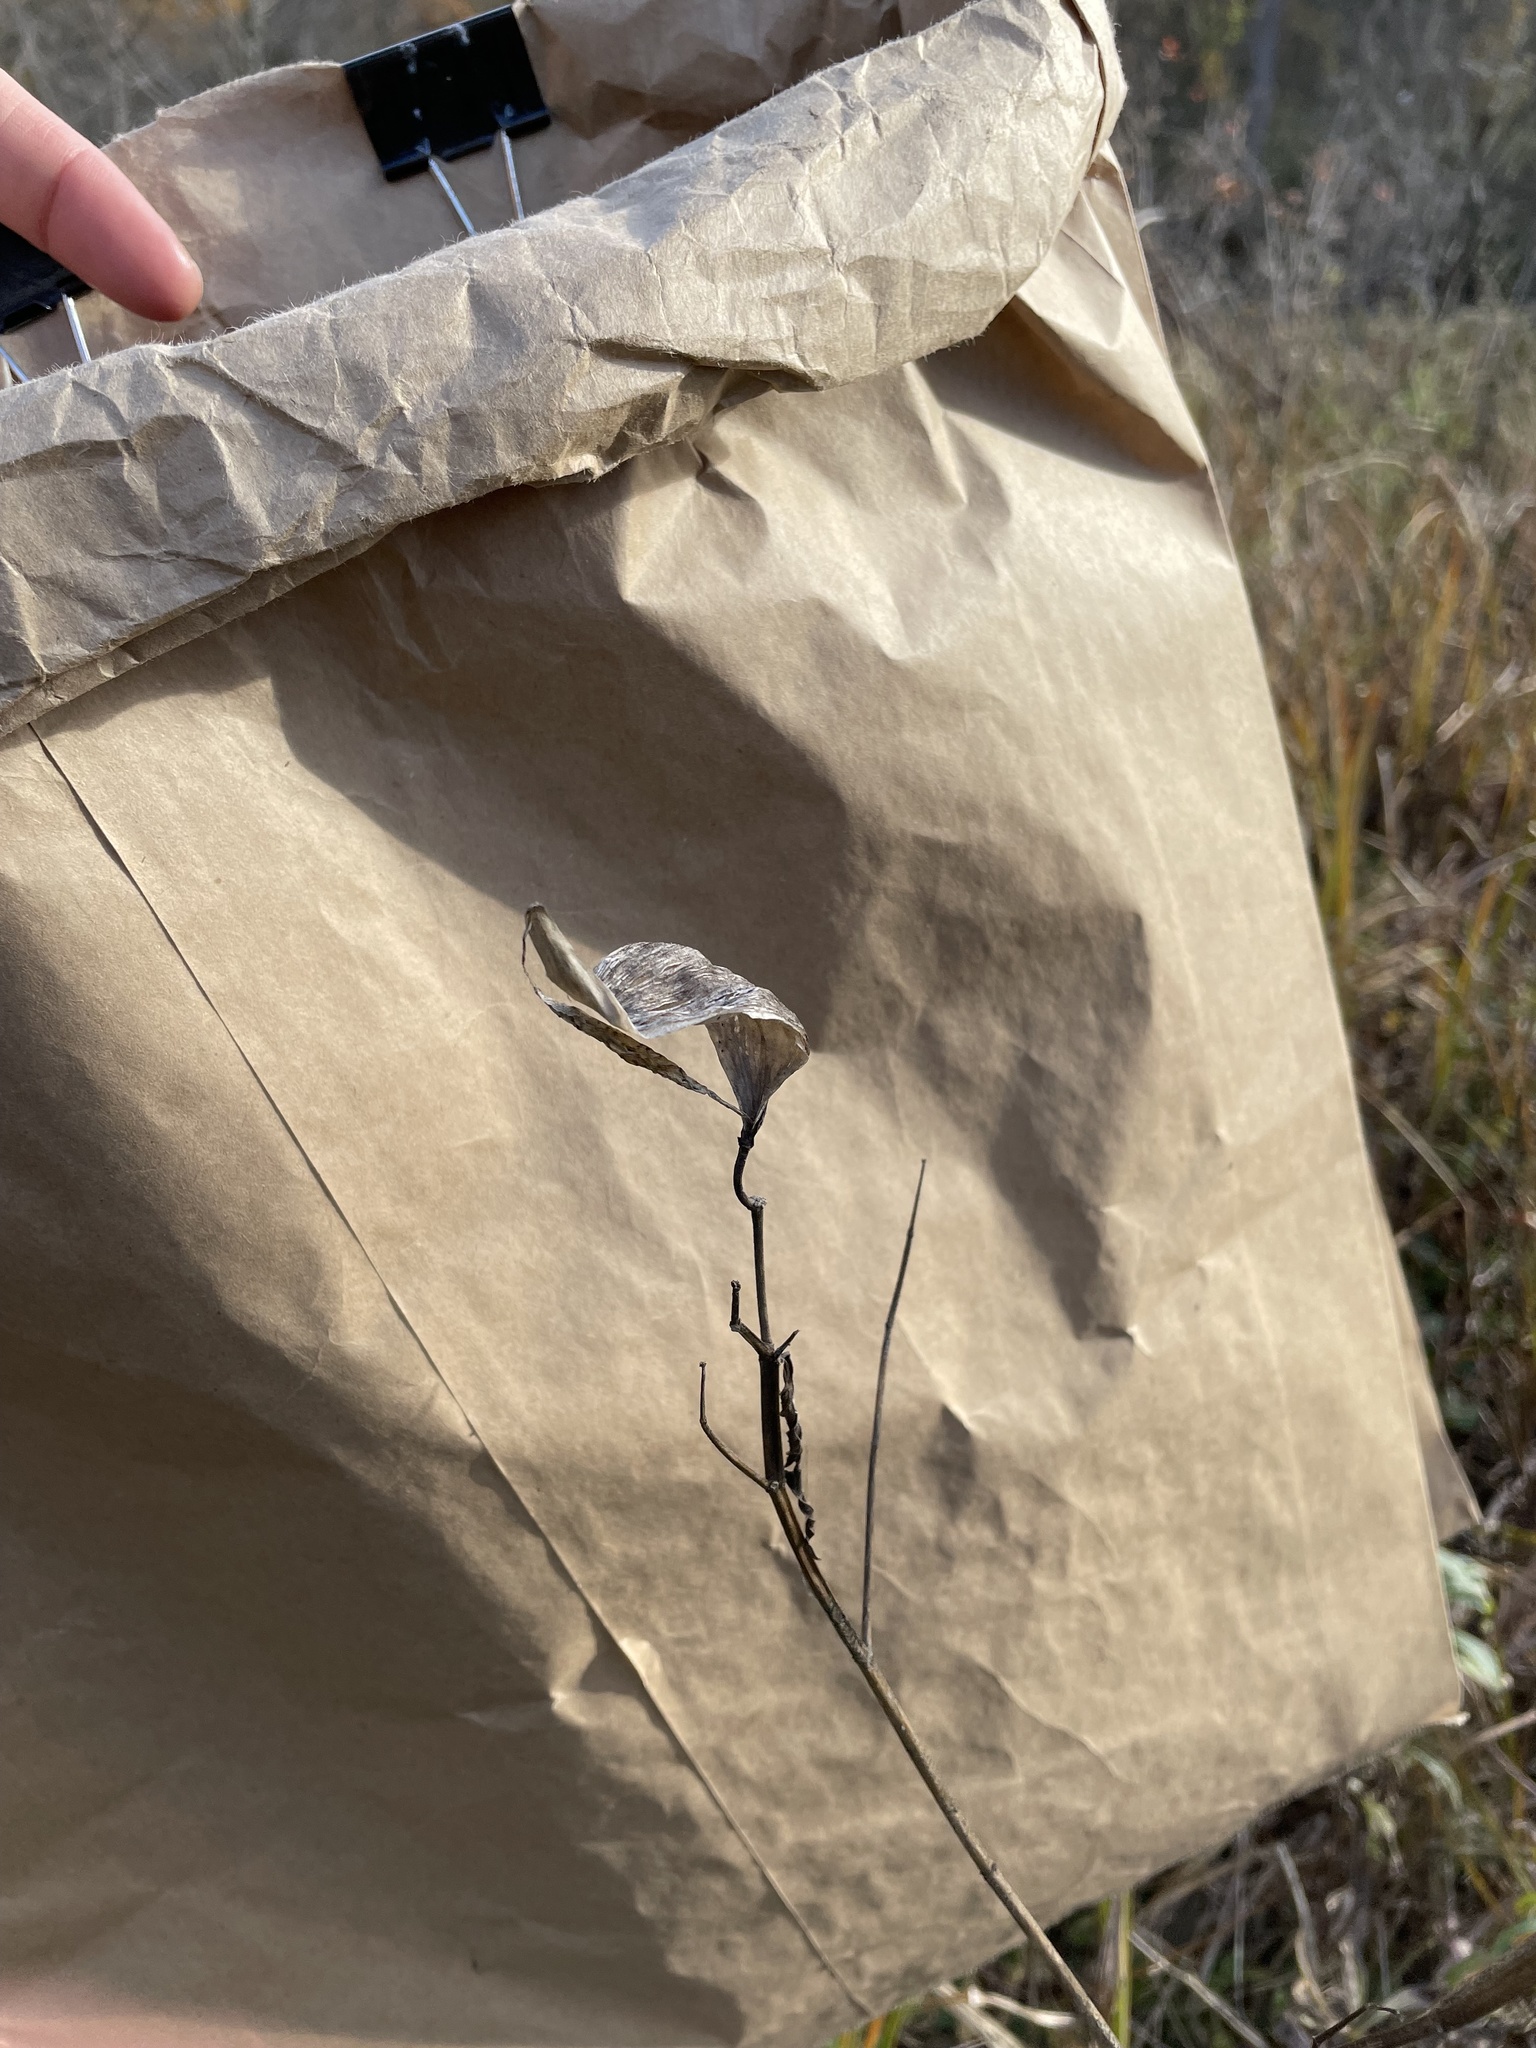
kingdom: Plantae
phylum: Tracheophyta
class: Magnoliopsida
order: Gentianales
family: Apocynaceae
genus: Asclepias
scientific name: Asclepias incarnata
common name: Swamp milkweed
